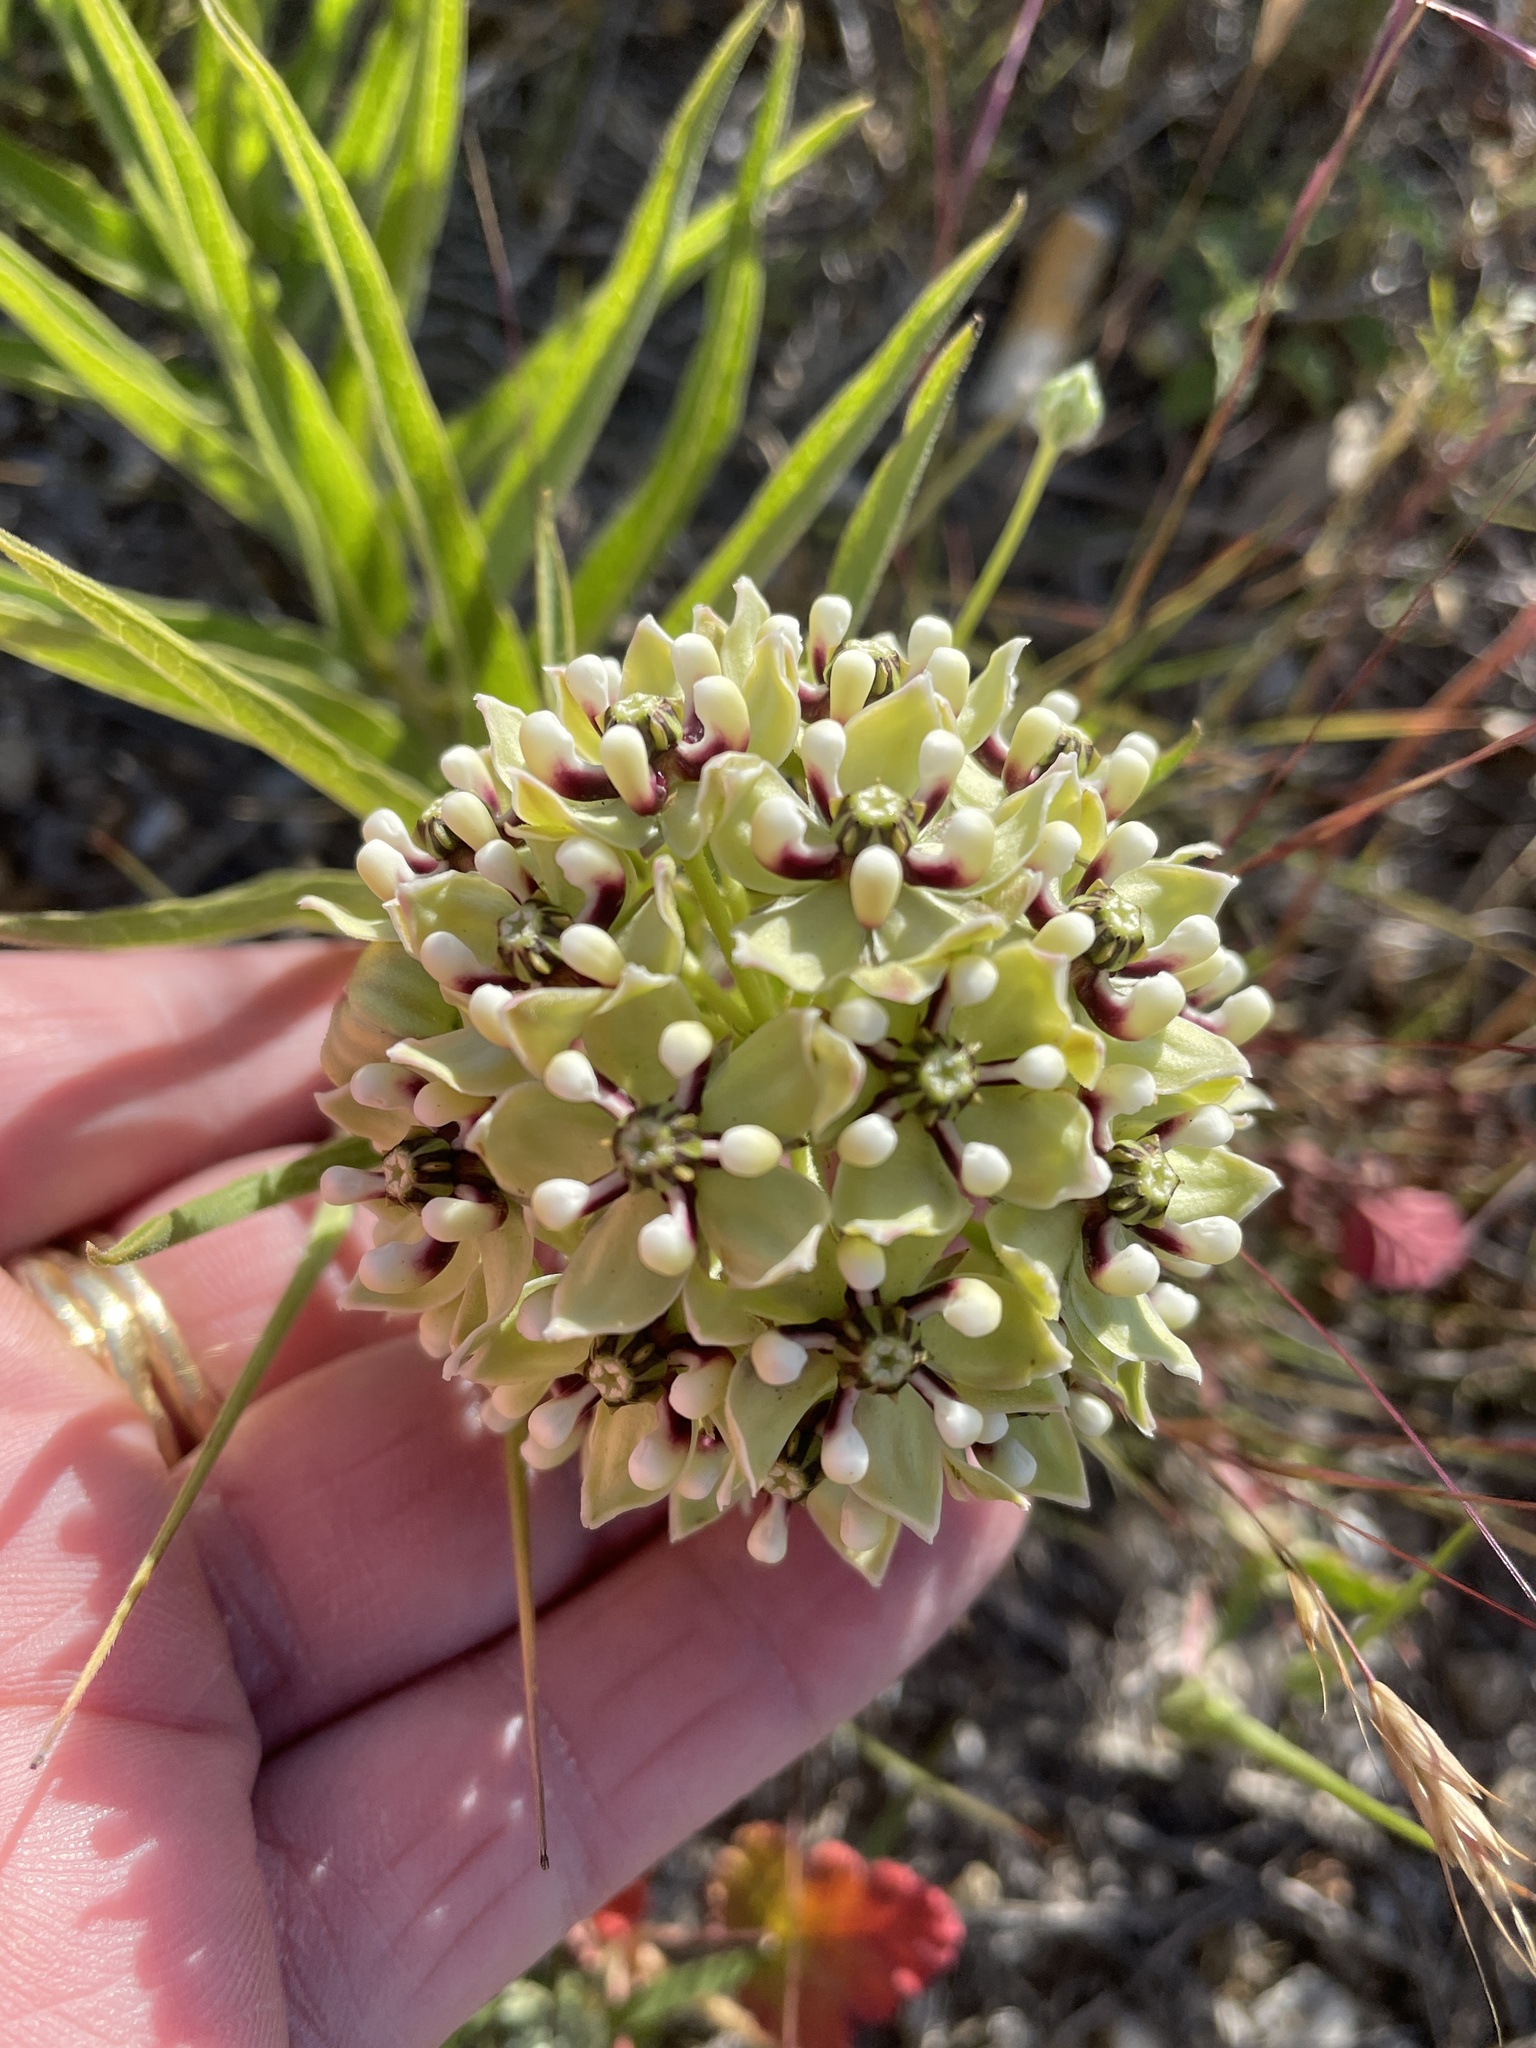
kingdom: Plantae
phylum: Tracheophyta
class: Magnoliopsida
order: Gentianales
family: Apocynaceae
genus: Asclepias
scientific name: Asclepias asperula
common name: Antelope horns
